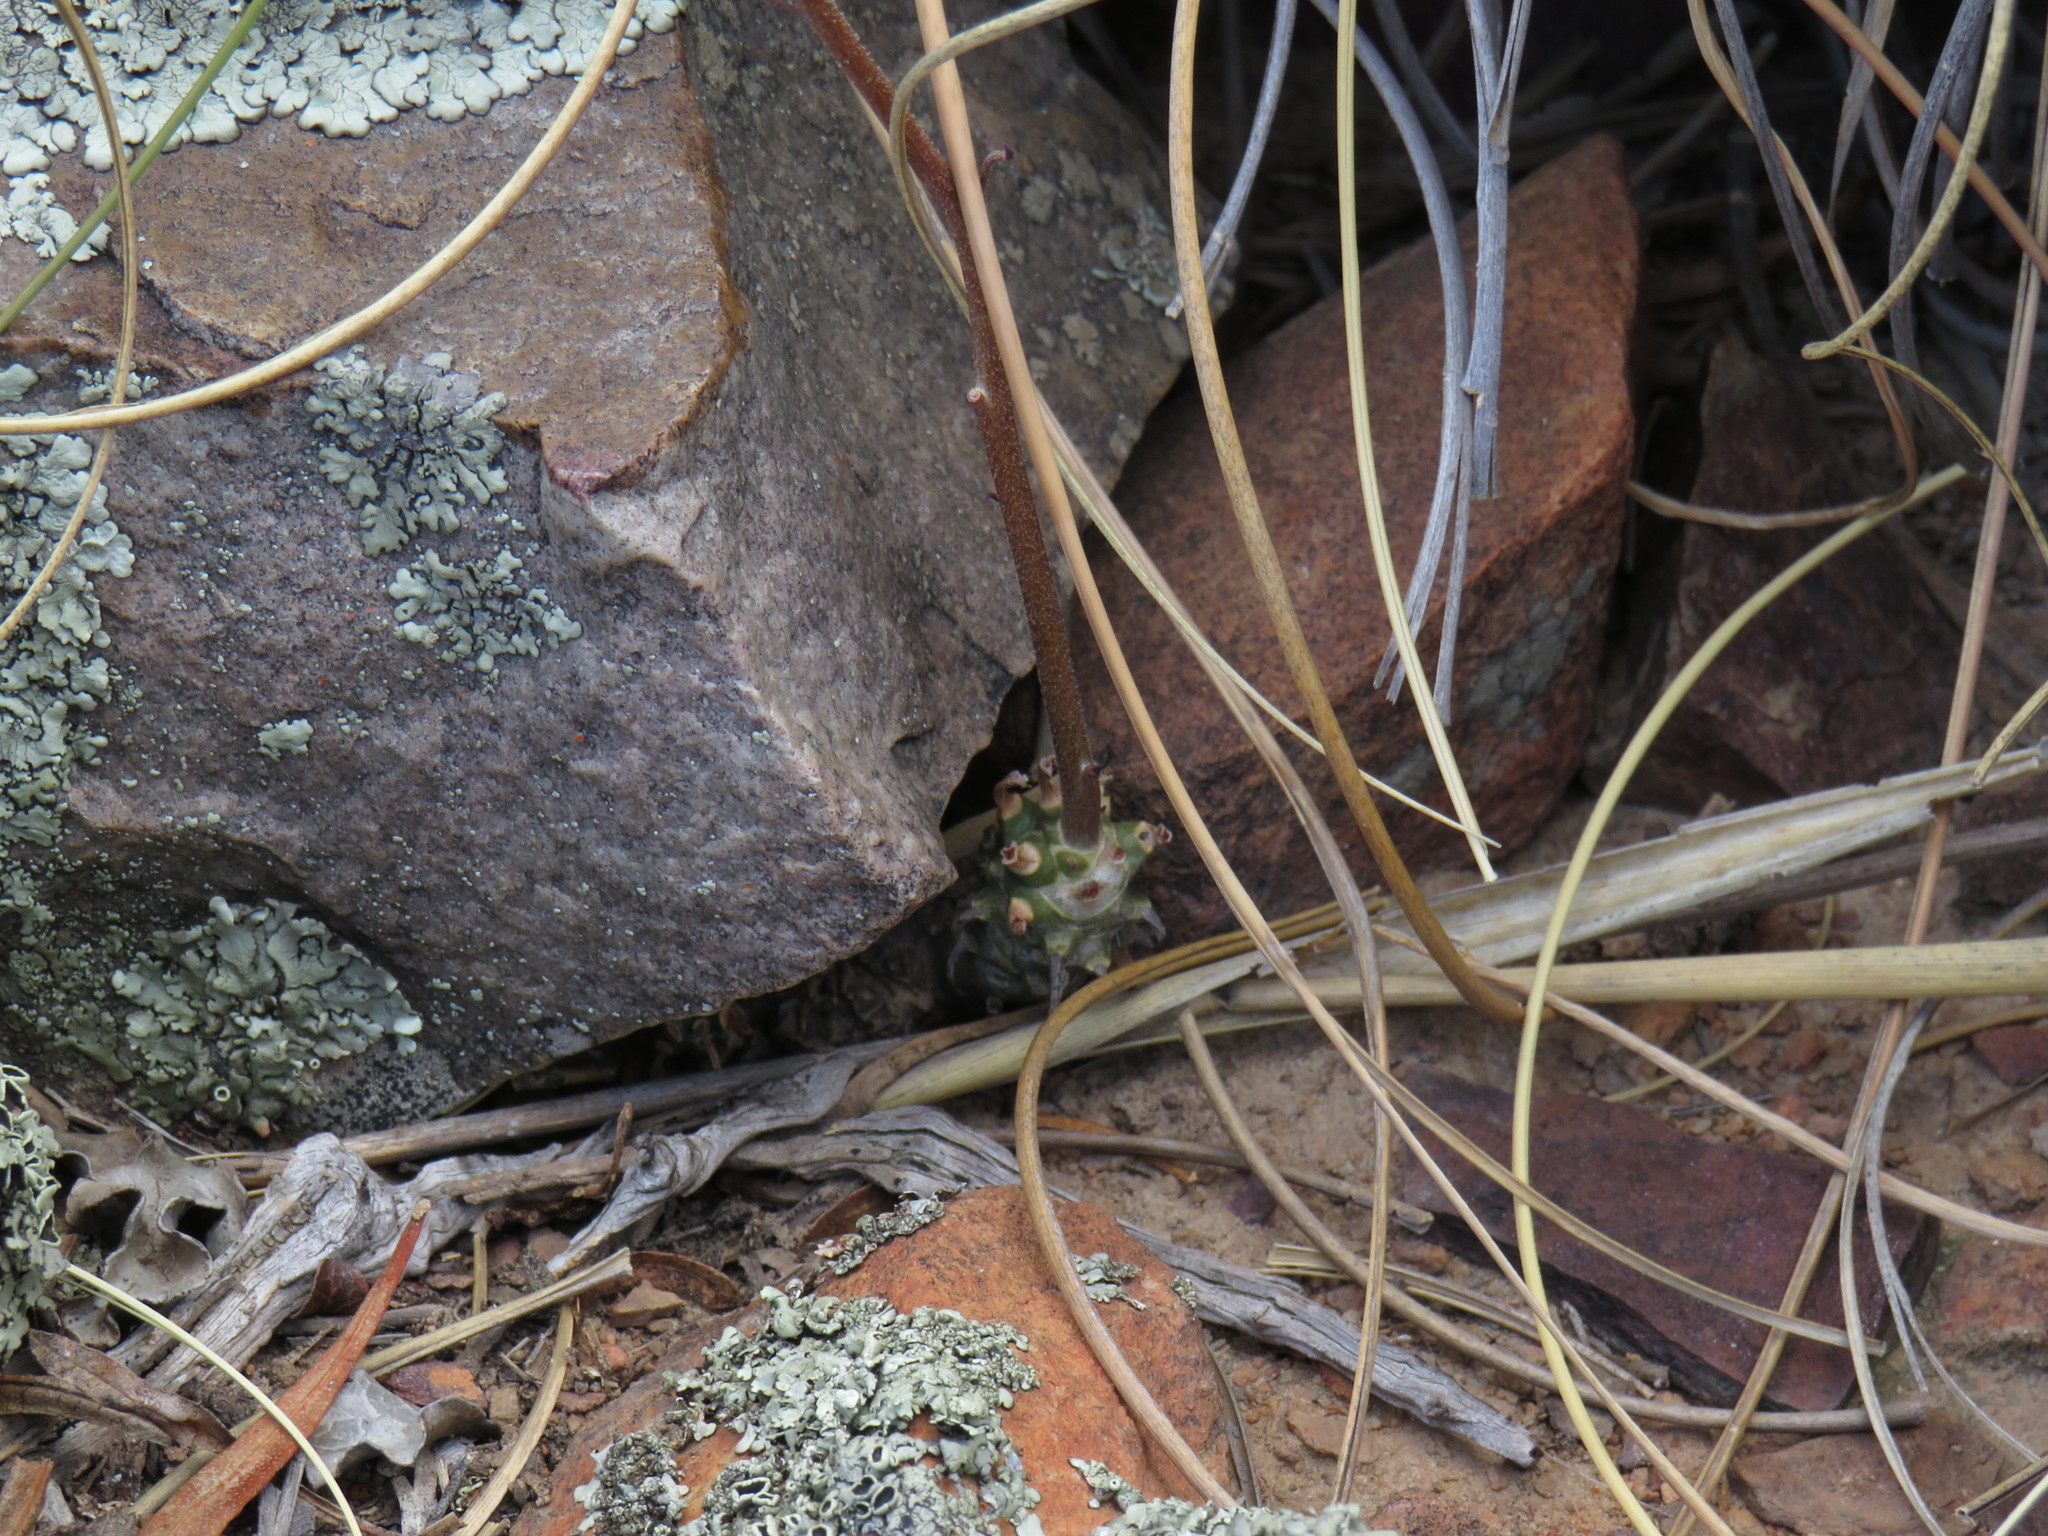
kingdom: Plantae
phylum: Tracheophyta
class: Magnoliopsida
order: Saxifragales
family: Crassulaceae
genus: Tylecodon
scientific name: Tylecodon ventricosus
